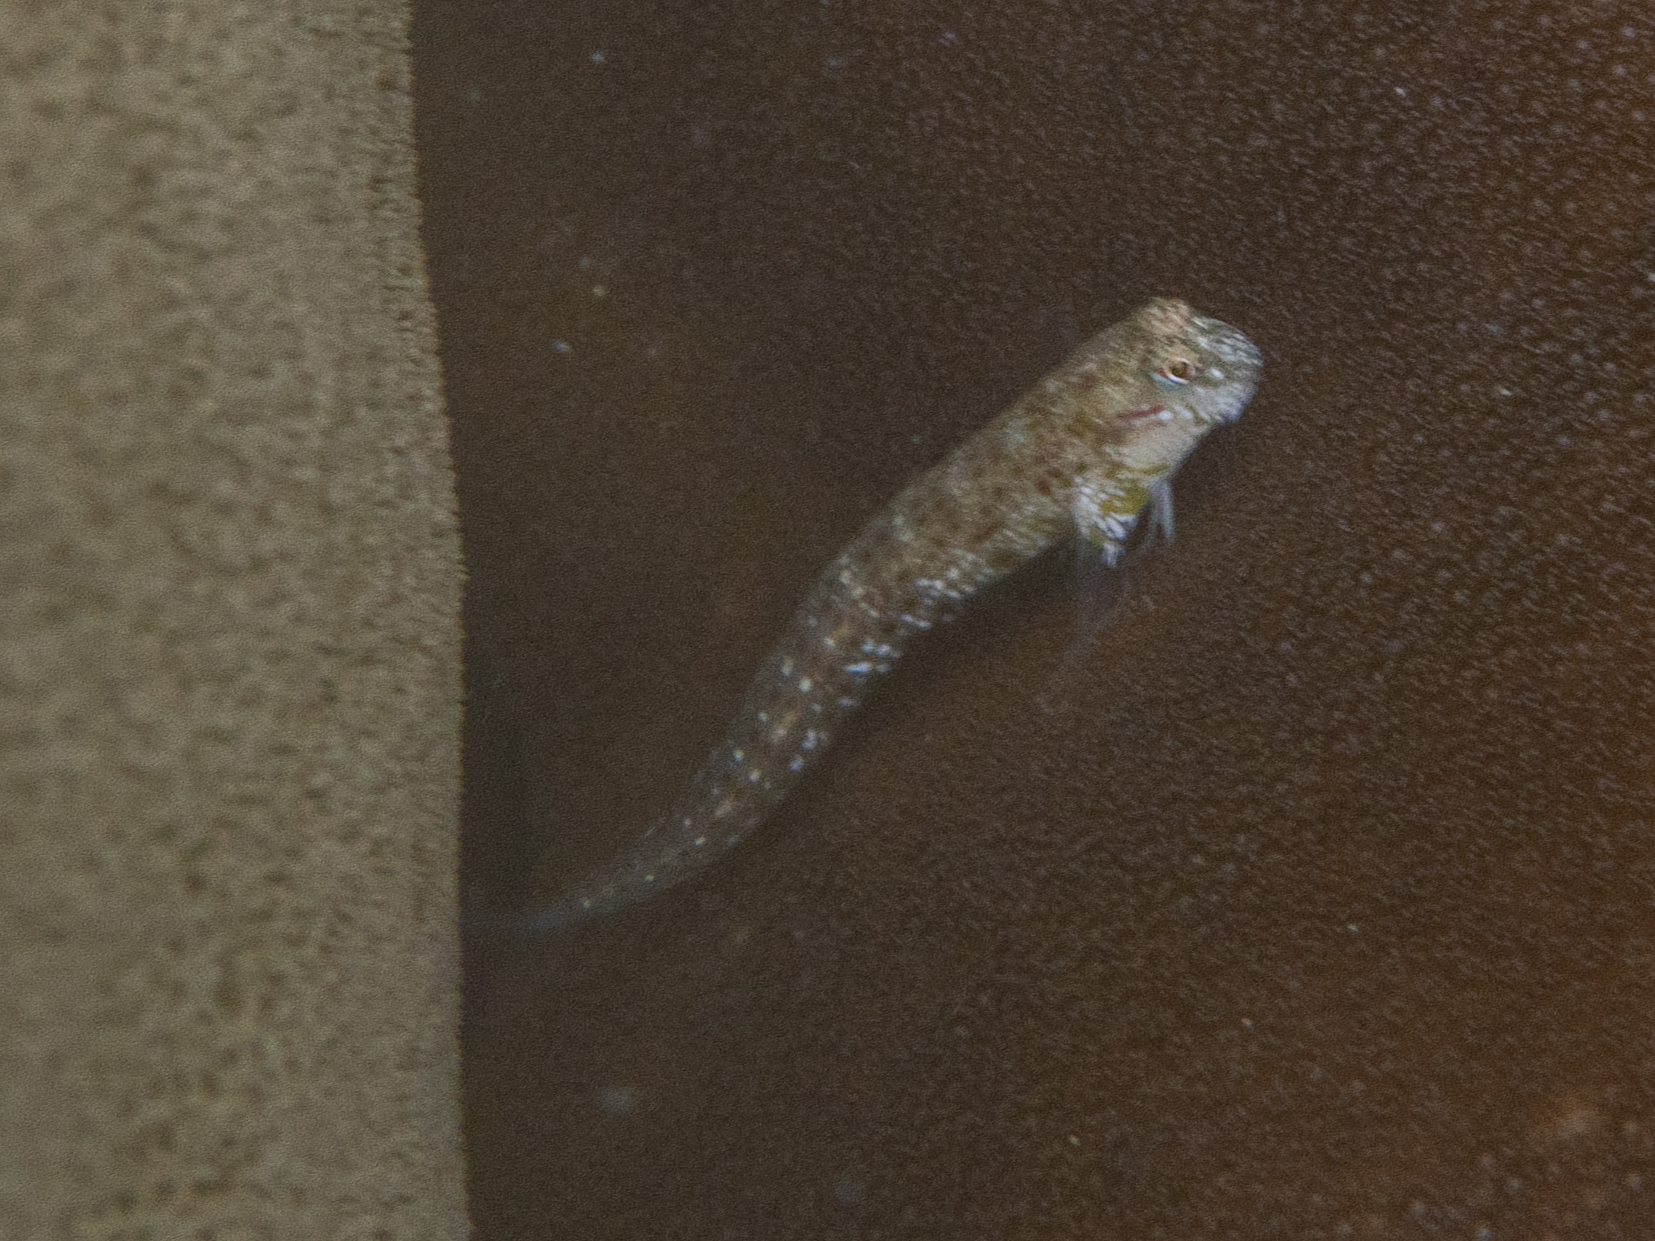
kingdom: Animalia
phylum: Chordata
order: Perciformes
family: Blenniidae
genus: Glyptoparus
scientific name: Glyptoparus delicatulus
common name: Delicate blenny
